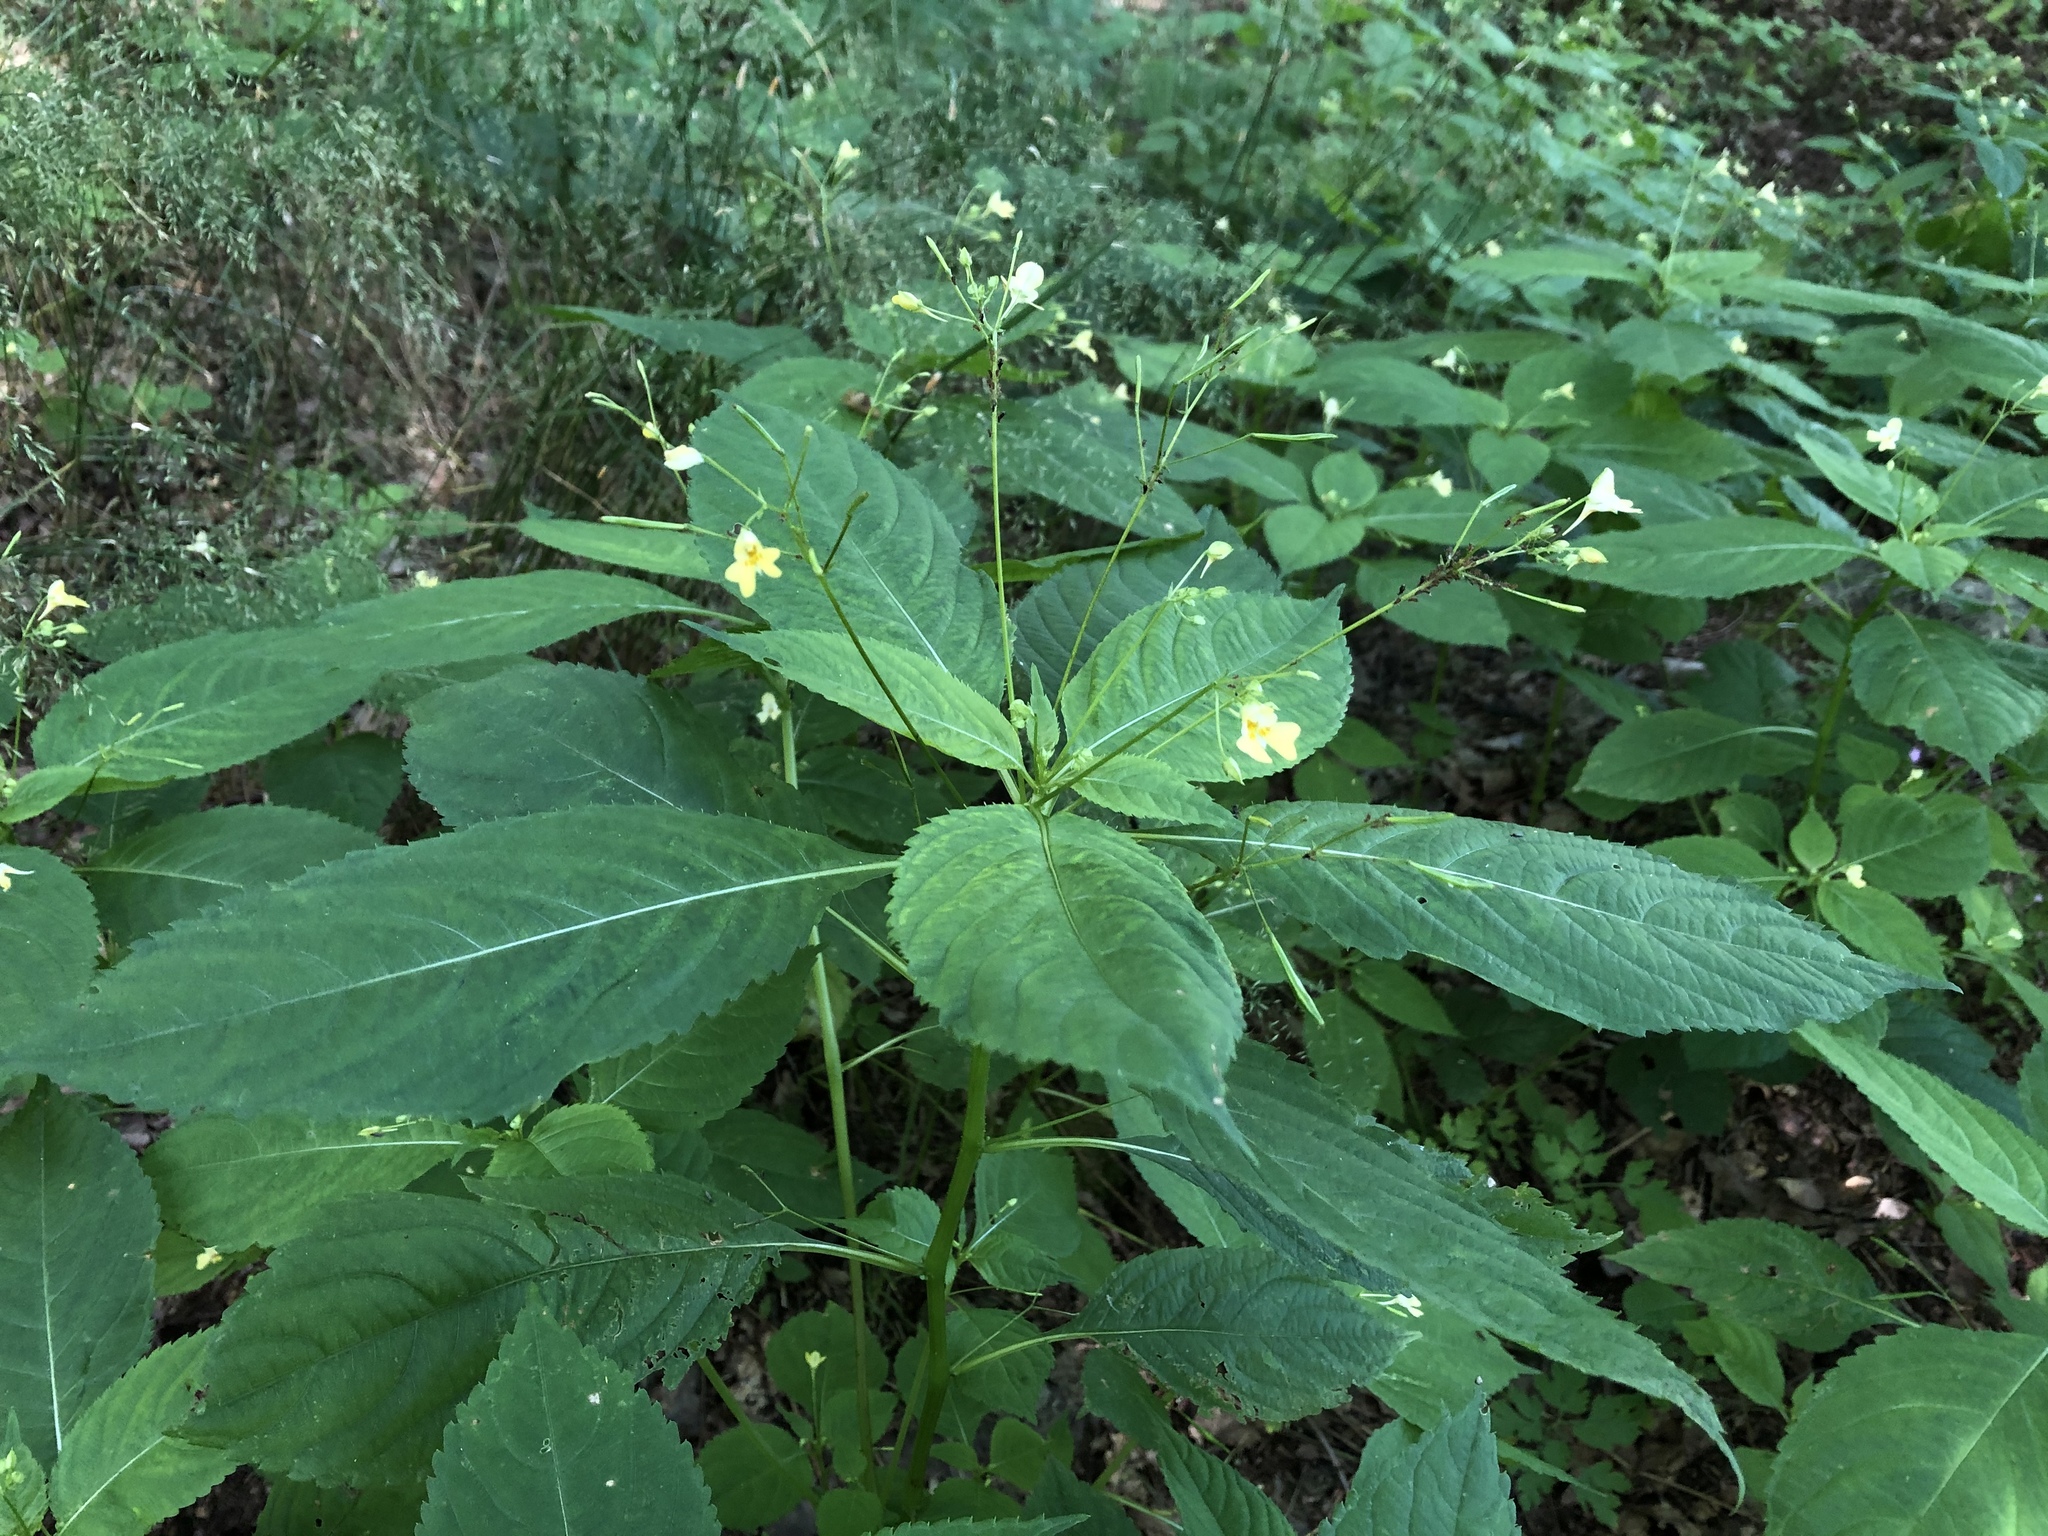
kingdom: Plantae
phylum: Tracheophyta
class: Magnoliopsida
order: Ericales
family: Balsaminaceae
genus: Impatiens
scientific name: Impatiens parviflora
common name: Small balsam
